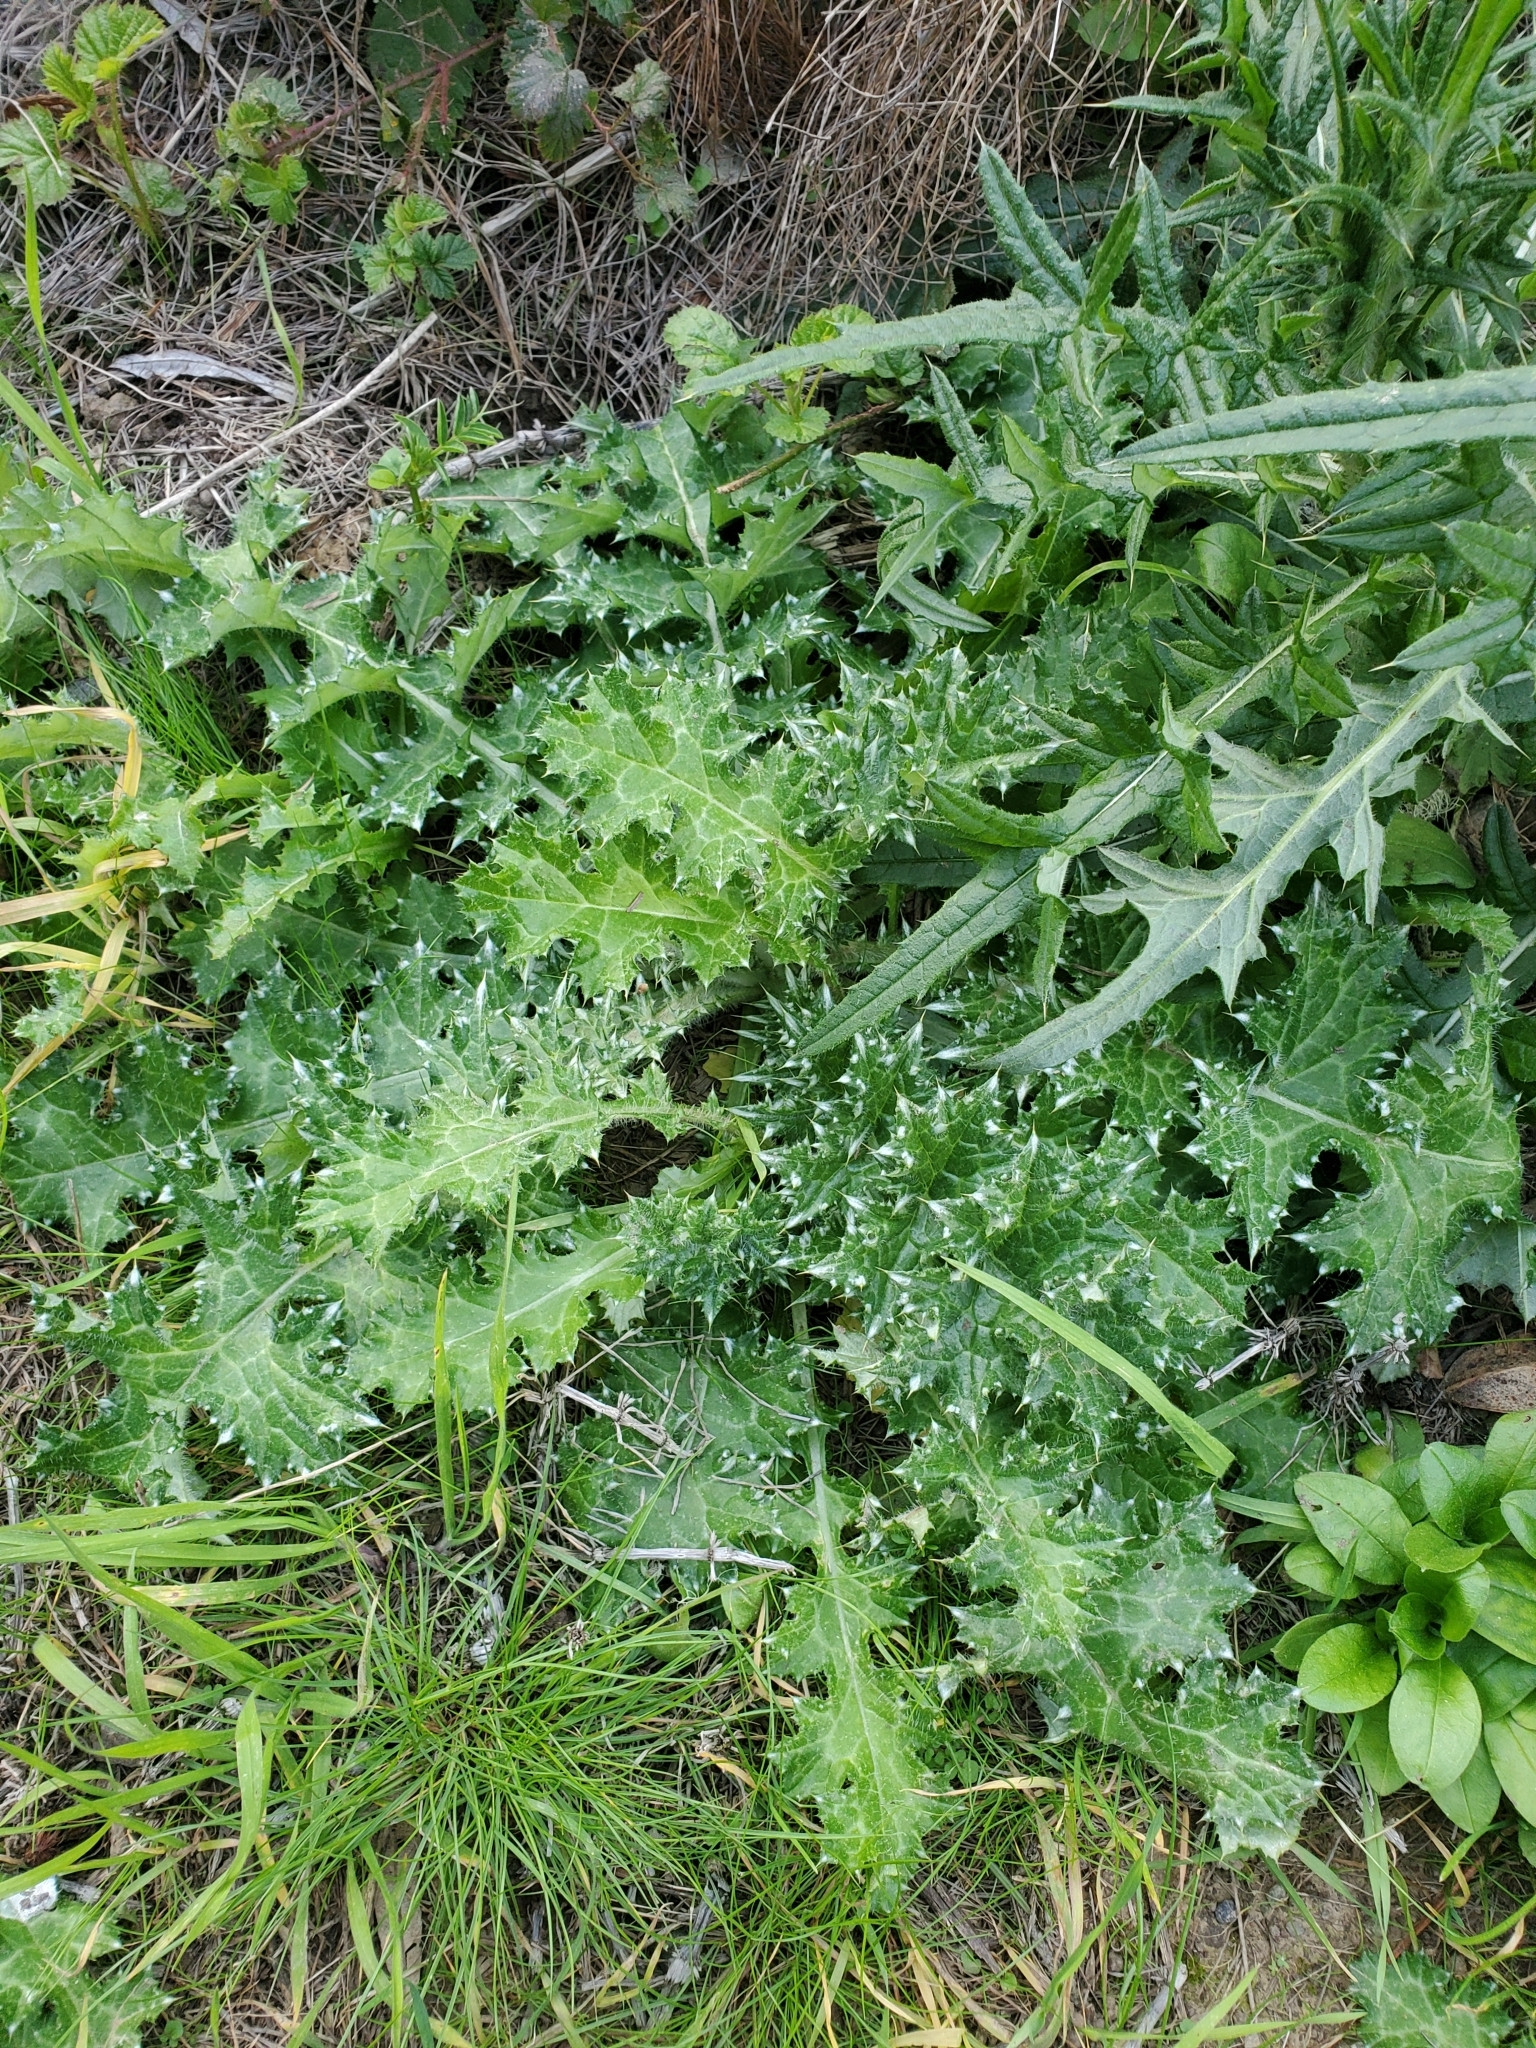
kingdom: Plantae
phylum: Tracheophyta
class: Magnoliopsida
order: Asterales
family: Asteraceae
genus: Carduus
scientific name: Carduus pycnocephalus
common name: Plymouth thistle
